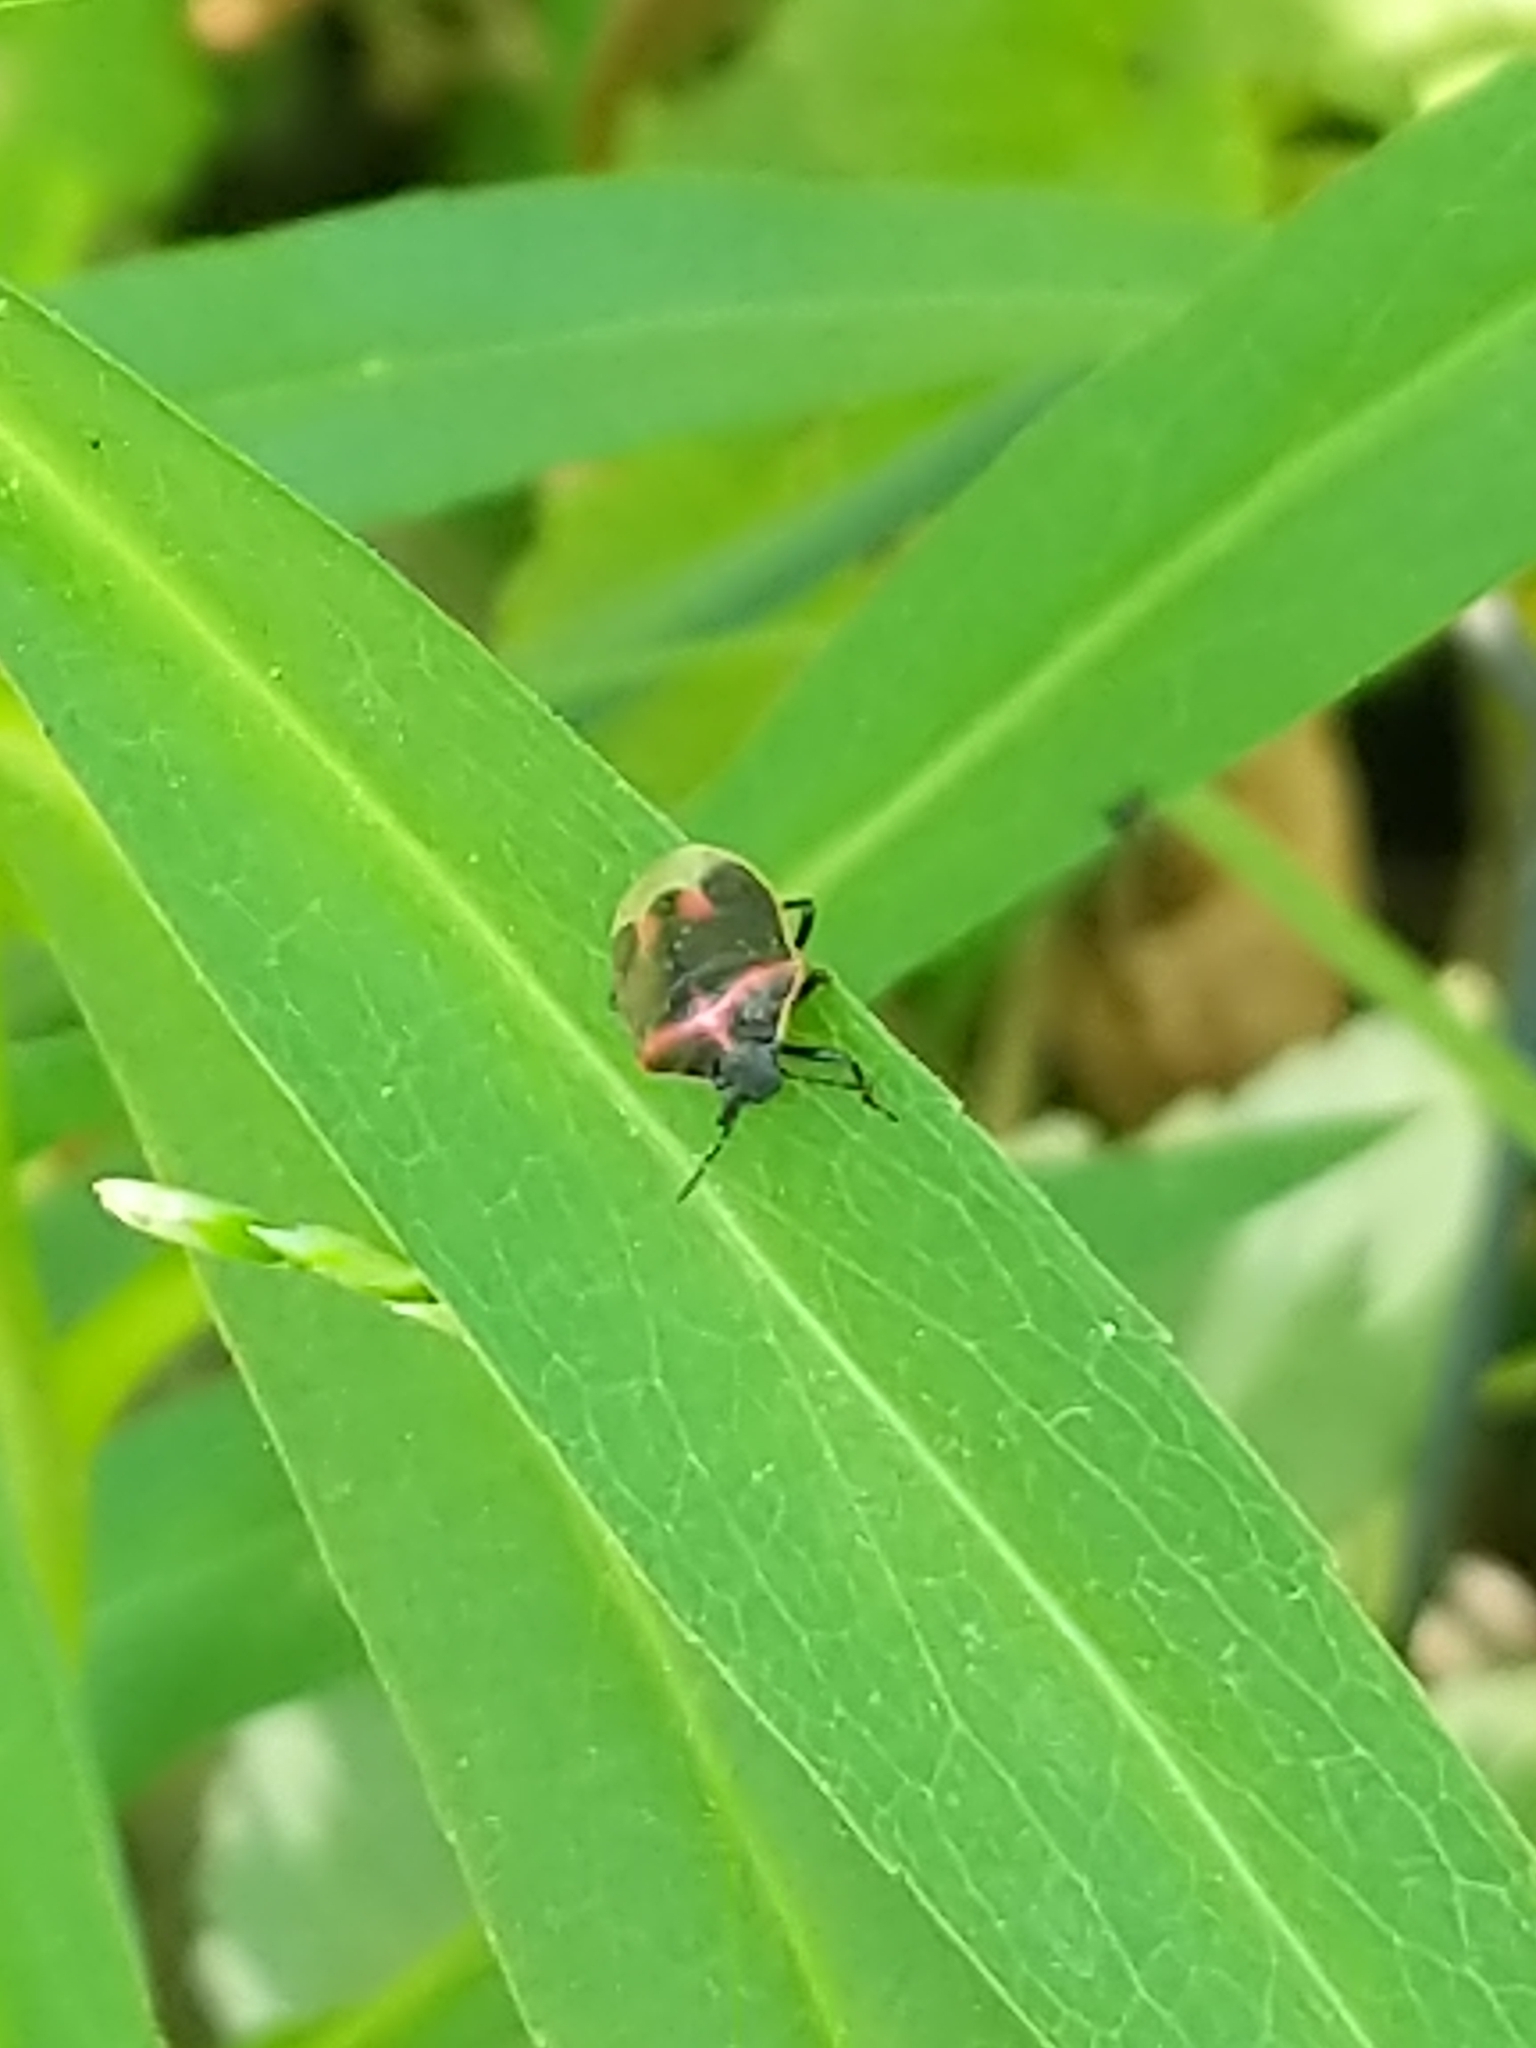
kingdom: Animalia
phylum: Arthropoda
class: Insecta
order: Hemiptera
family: Pentatomidae
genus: Cosmopepla
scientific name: Cosmopepla lintneriana
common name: Twice-stabbed stink bug
